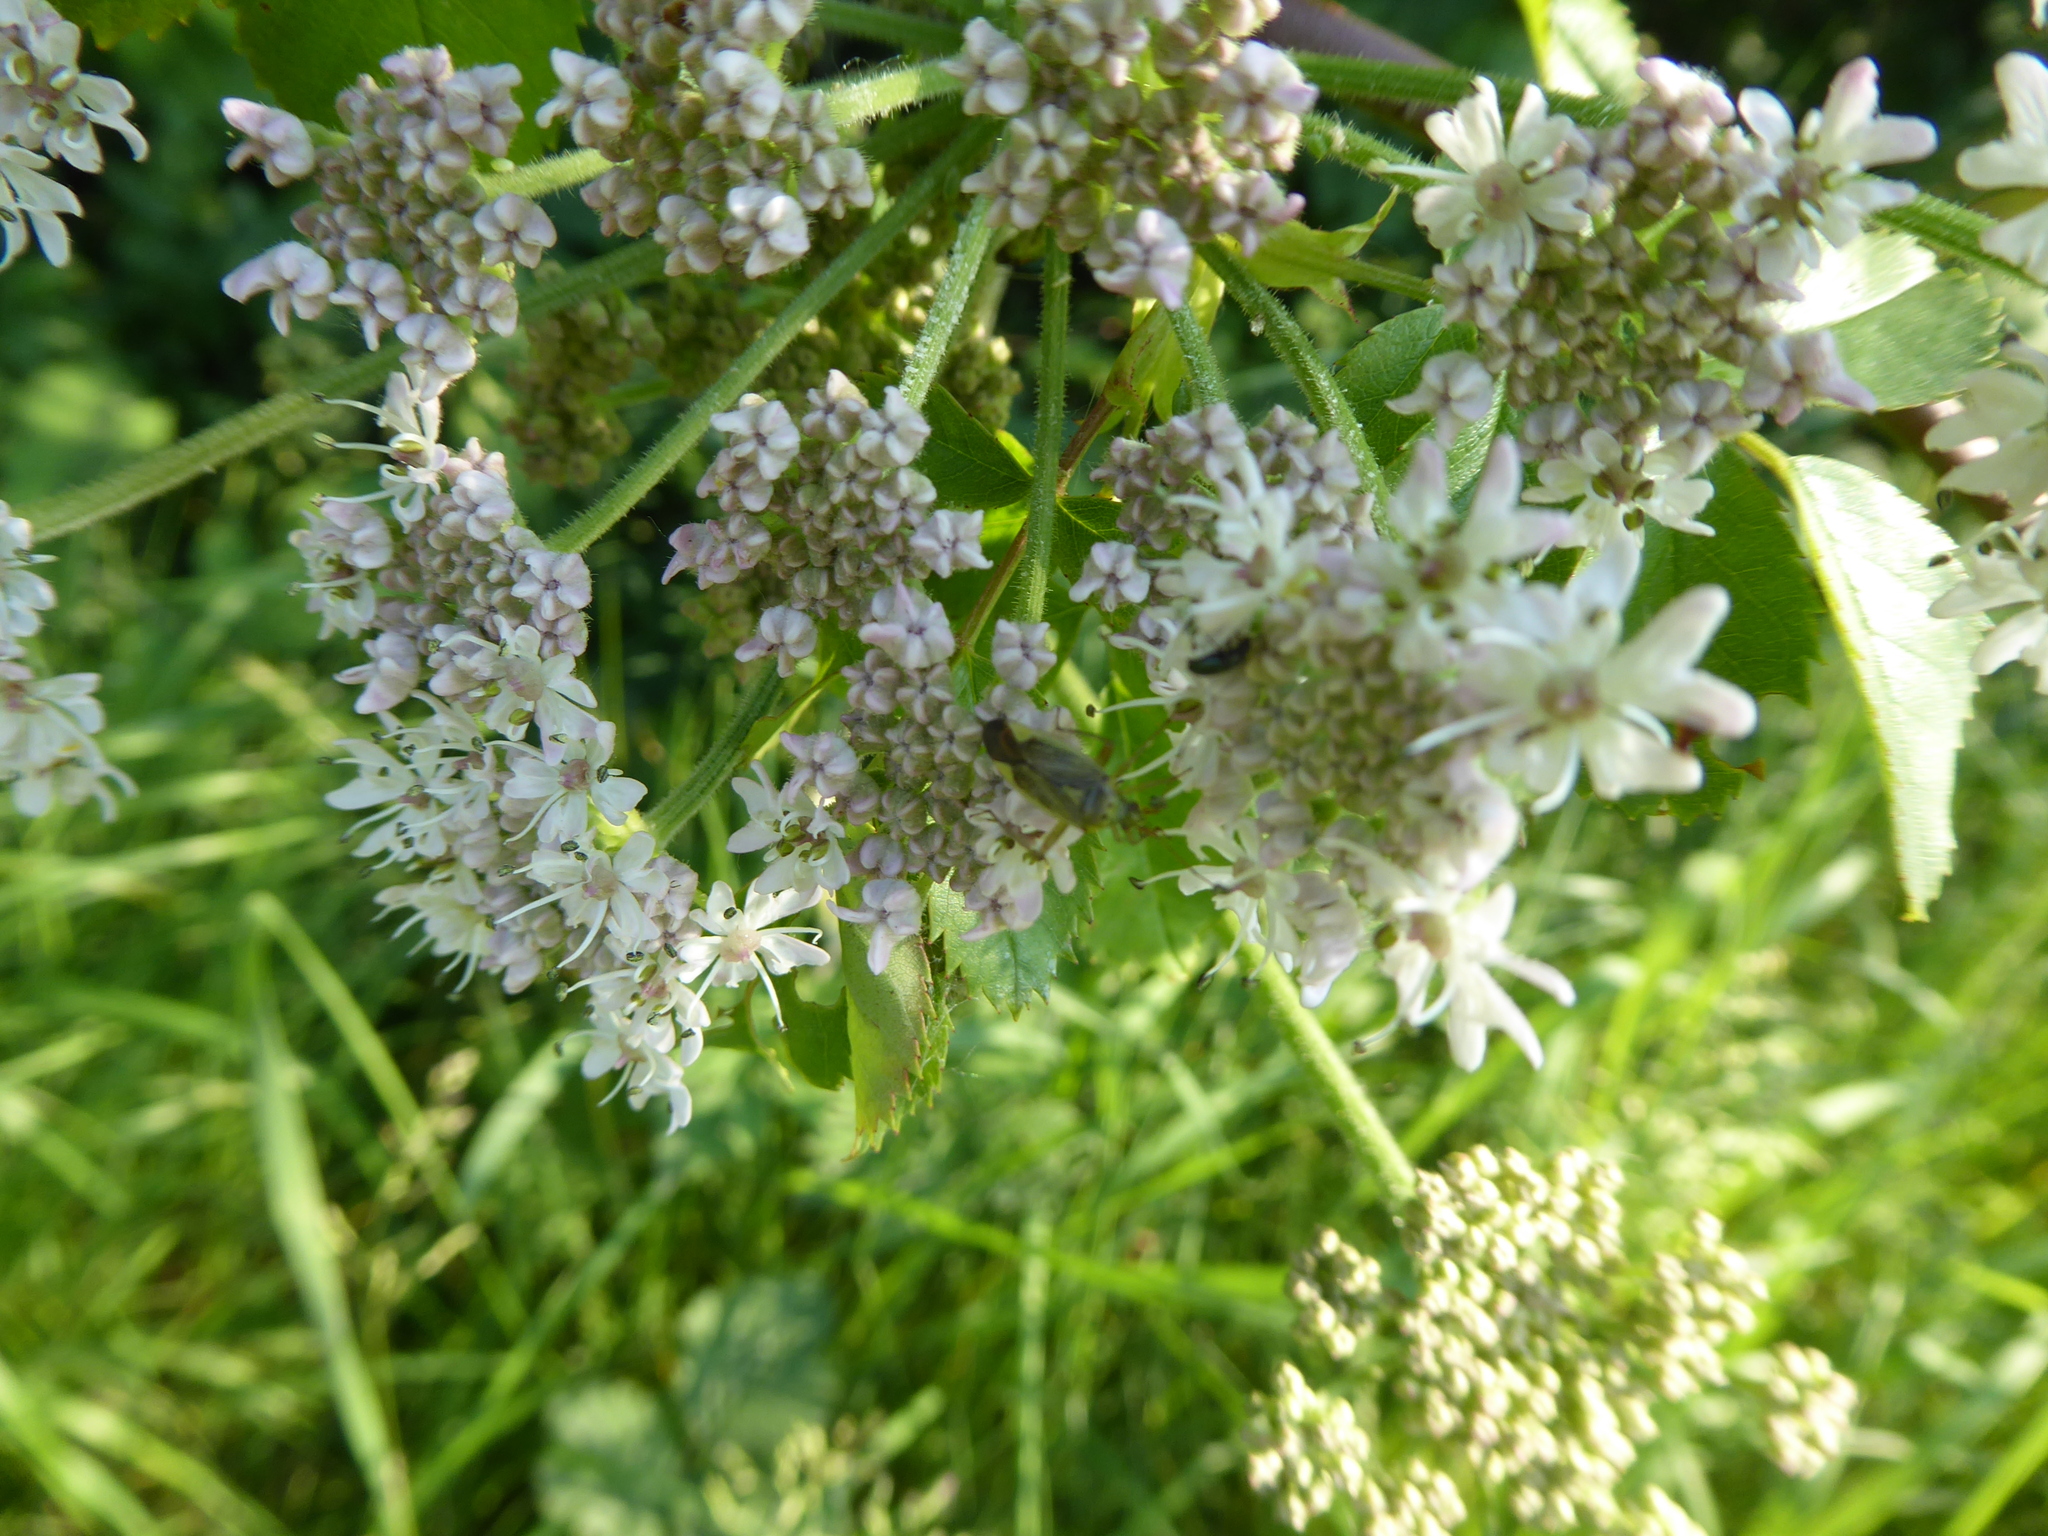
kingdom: Animalia
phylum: Arthropoda
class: Insecta
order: Hemiptera
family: Miridae
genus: Closterotomus
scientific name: Closterotomus trivialis
